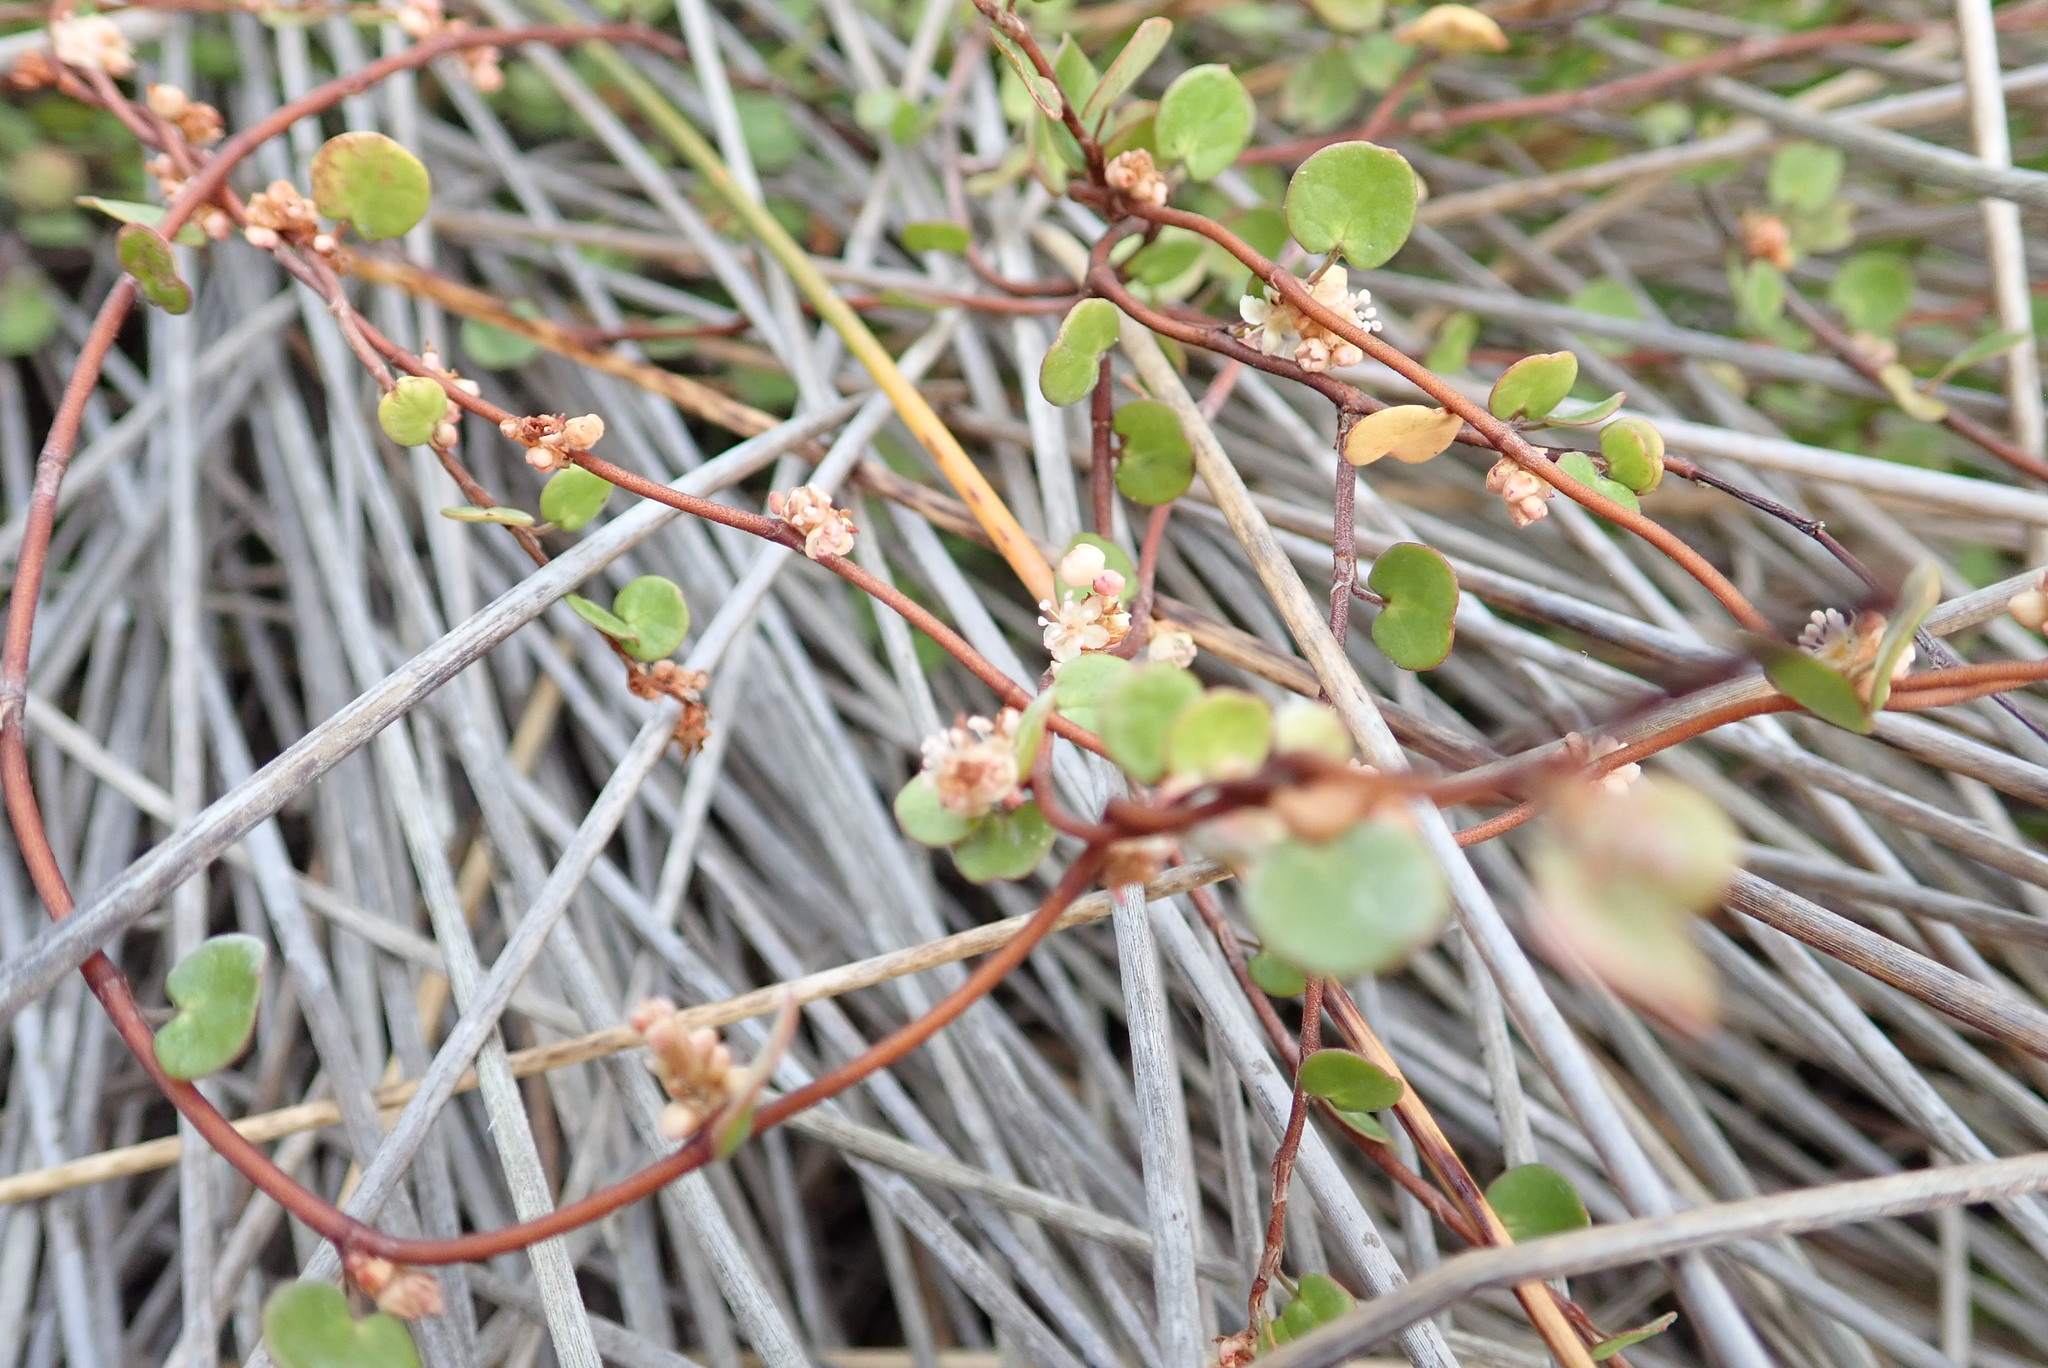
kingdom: Plantae
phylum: Tracheophyta
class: Magnoliopsida
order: Caryophyllales
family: Polygonaceae
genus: Muehlenbeckia
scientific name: Muehlenbeckia complexa
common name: Wireplant
